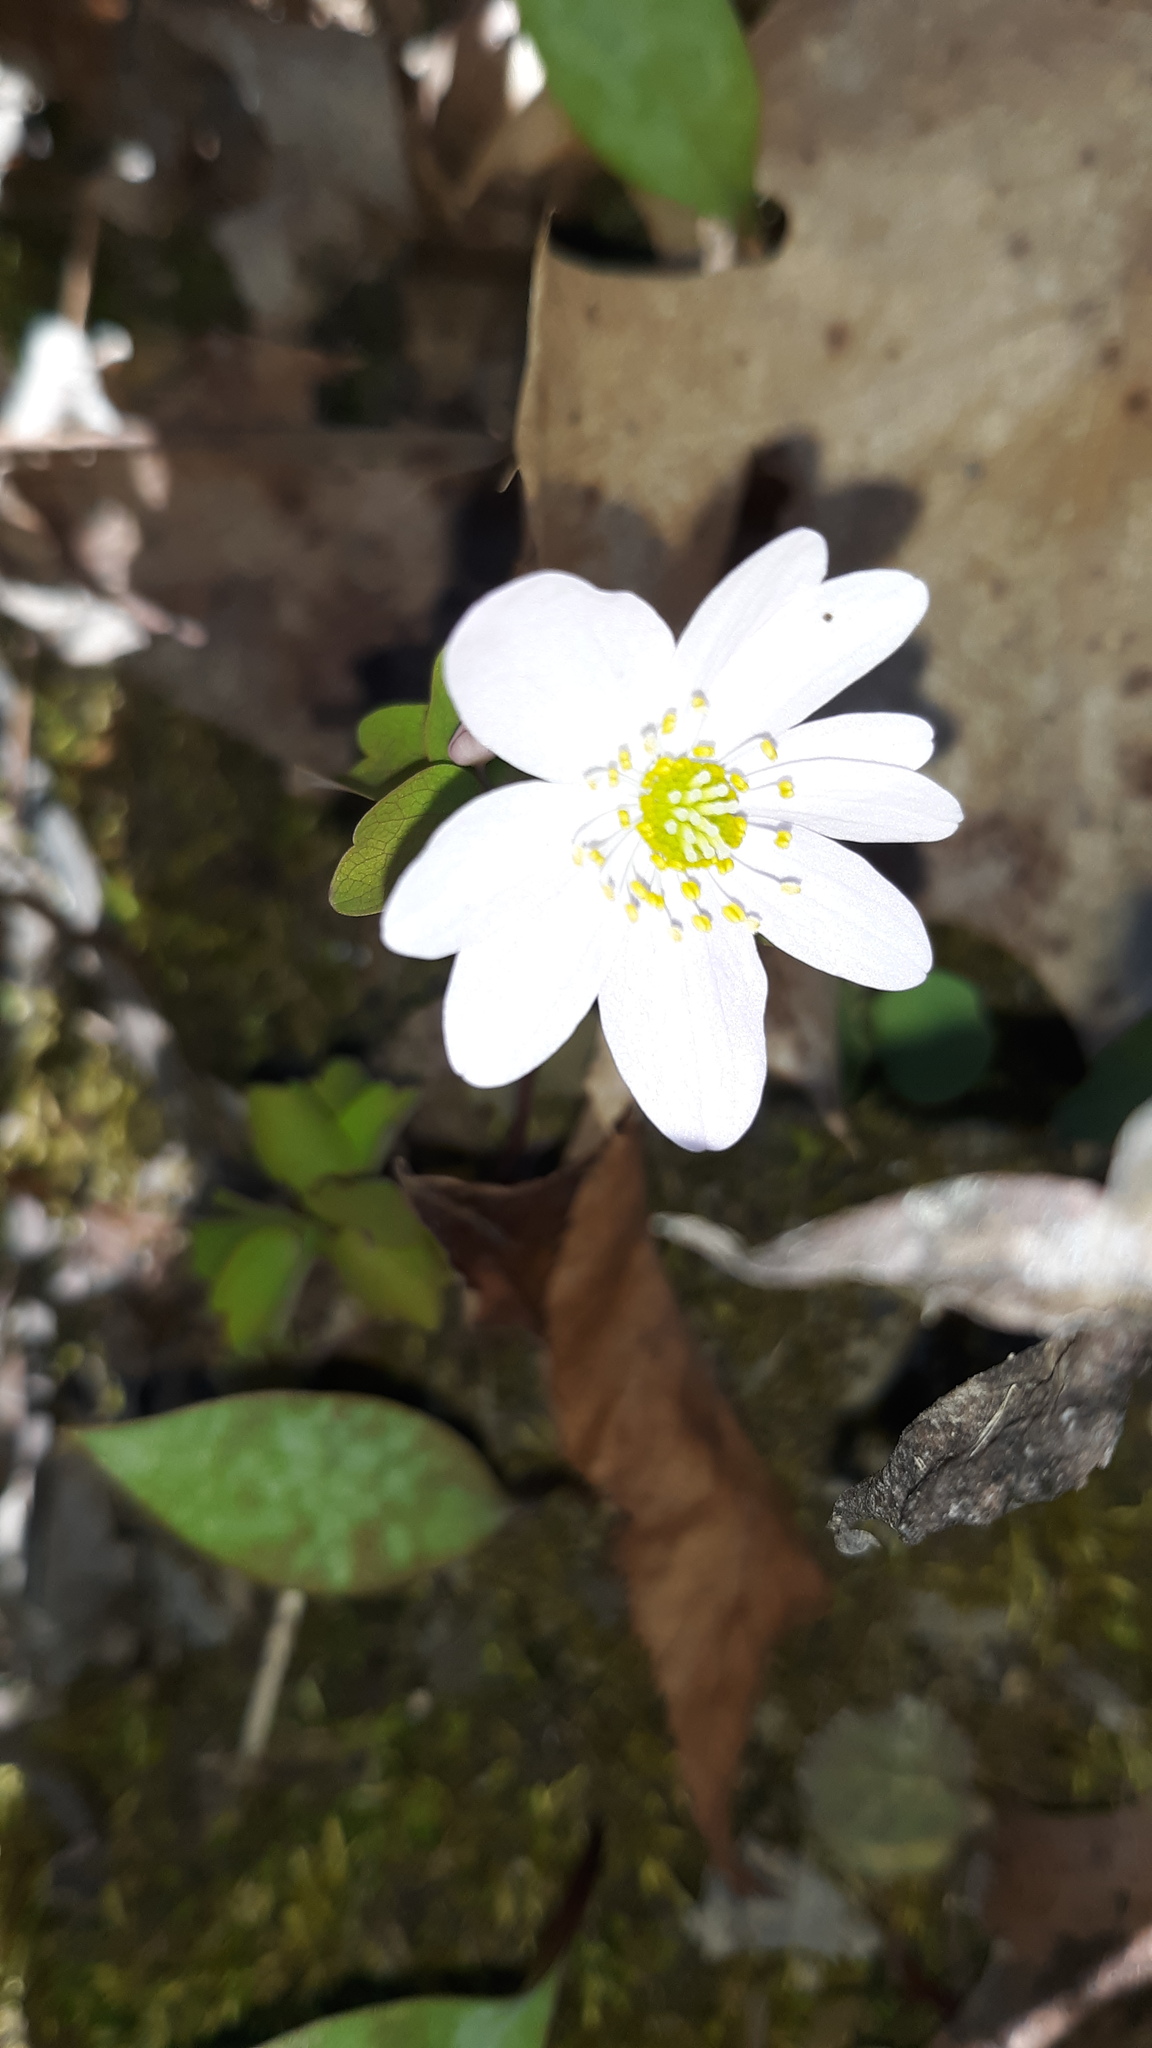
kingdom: Plantae
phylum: Tracheophyta
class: Magnoliopsida
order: Ranunculales
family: Ranunculaceae
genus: Thalictrum
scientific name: Thalictrum thalictroides
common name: Rue-anemone
